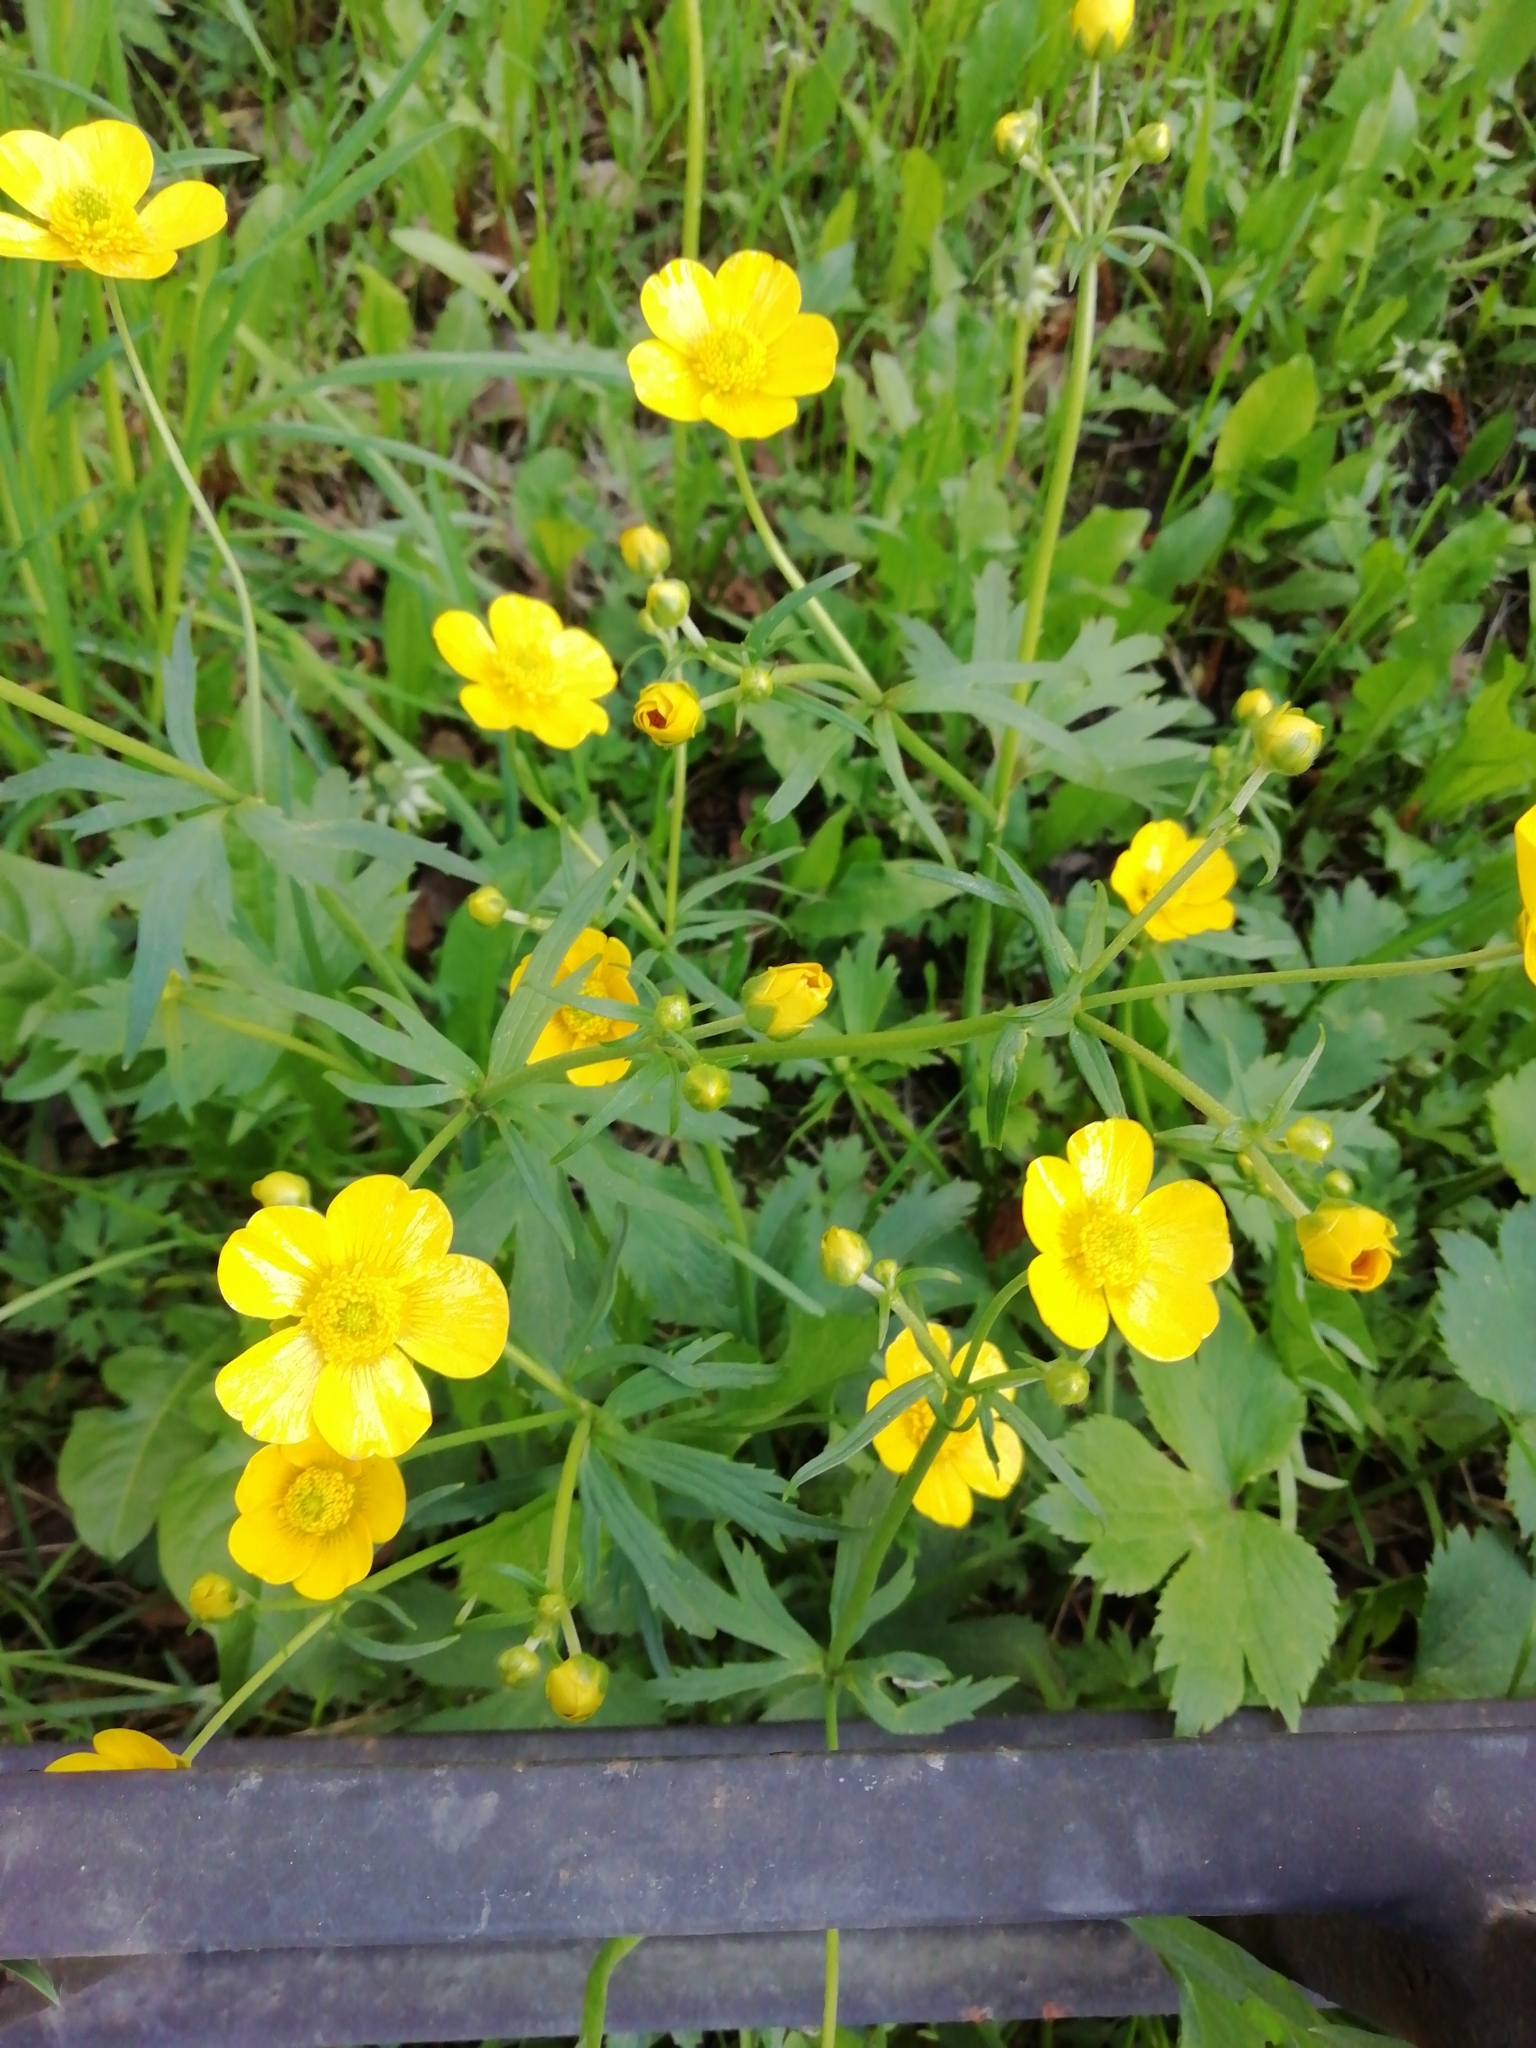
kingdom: Plantae
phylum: Tracheophyta
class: Magnoliopsida
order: Ranunculales
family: Ranunculaceae
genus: Ranunculus
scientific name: Ranunculus repens
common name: Creeping buttercup
